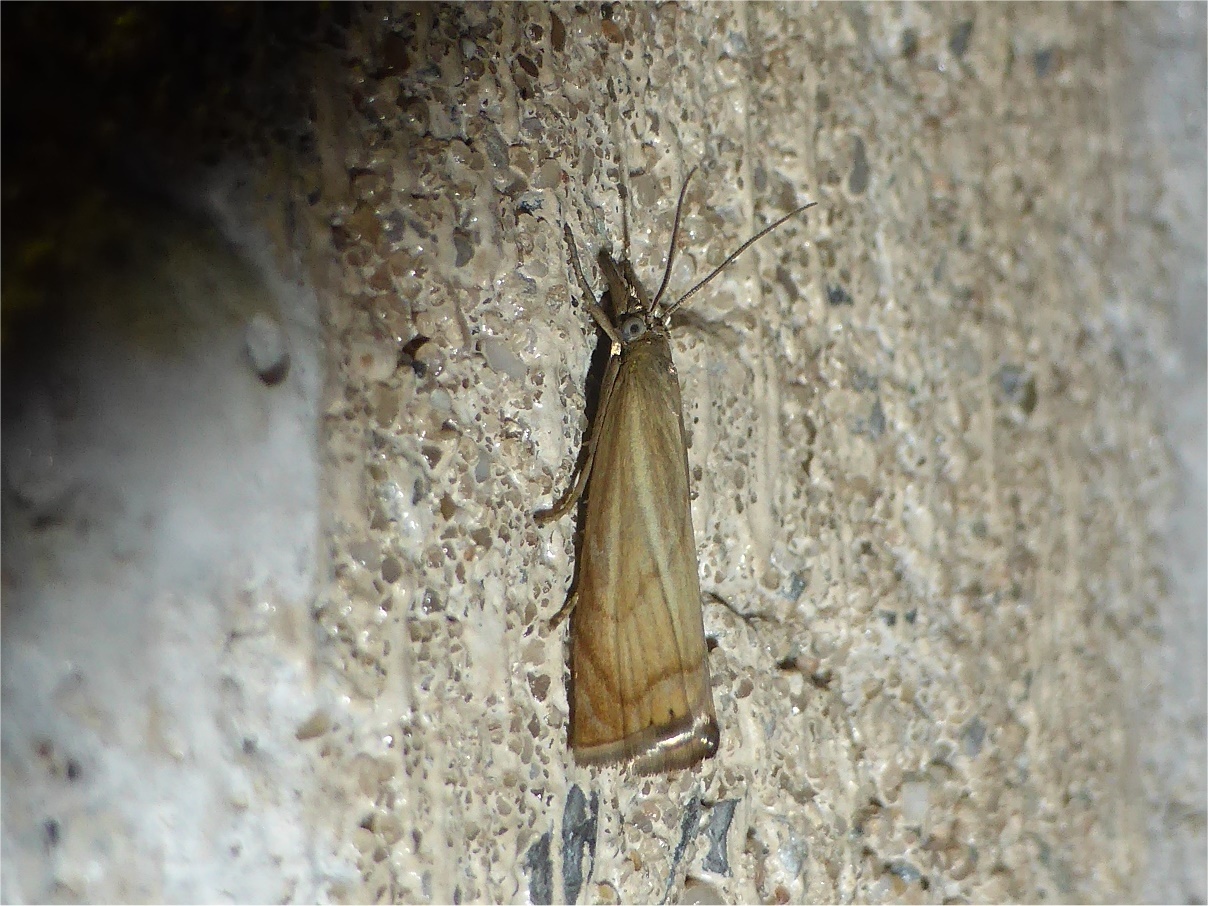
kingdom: Animalia
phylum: Arthropoda
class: Insecta
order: Lepidoptera
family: Crambidae
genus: Chrysoteuchia
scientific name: Chrysoteuchia culmella
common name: Garden grass-veneer
